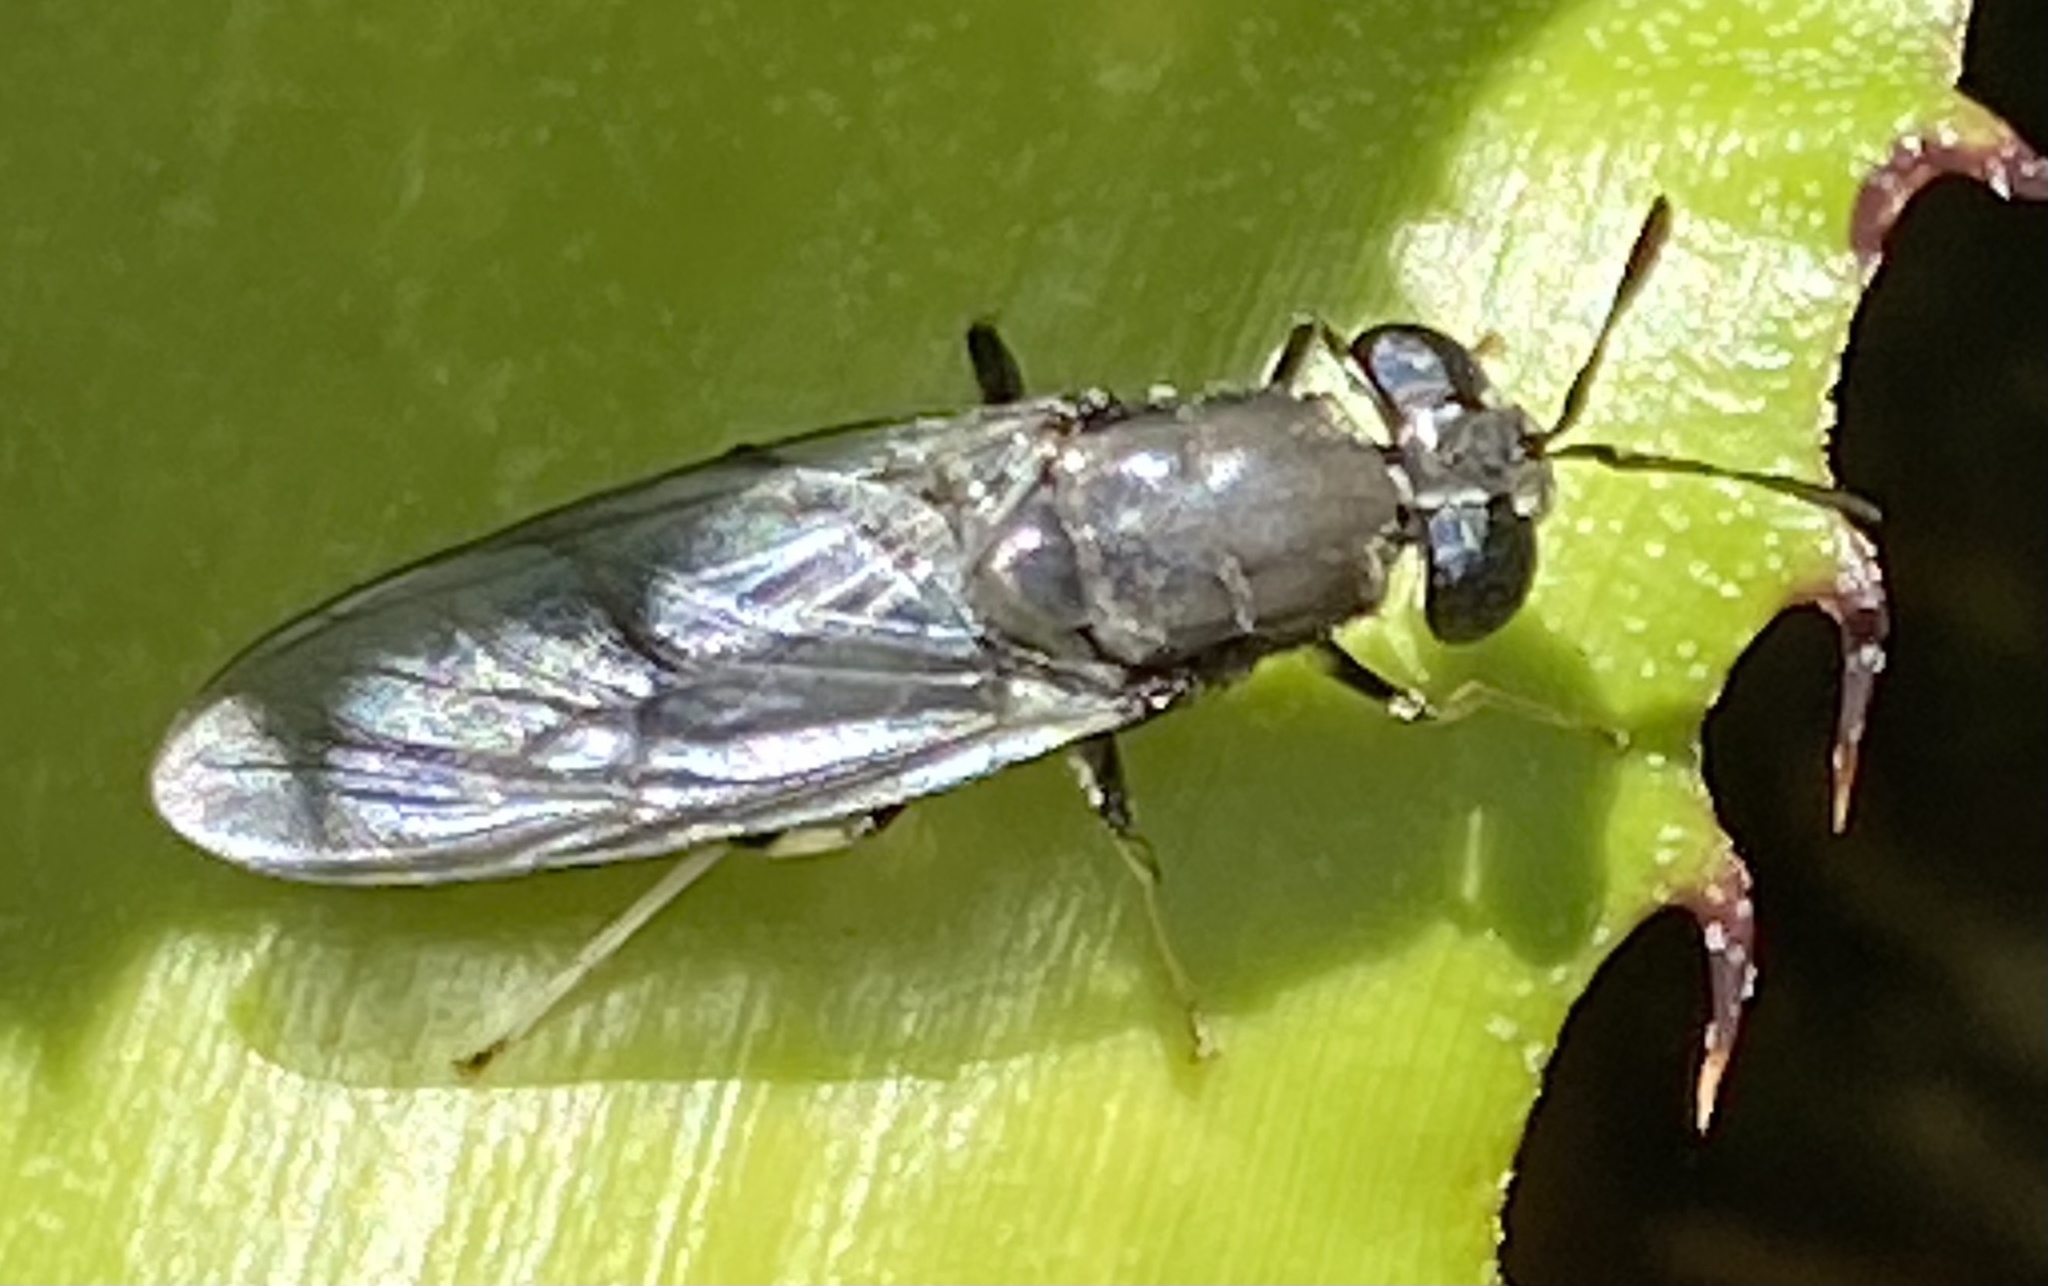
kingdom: Animalia
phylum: Arthropoda
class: Insecta
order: Diptera
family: Stratiomyidae
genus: Hermetia
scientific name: Hermetia illucens
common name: Black soldier fly
